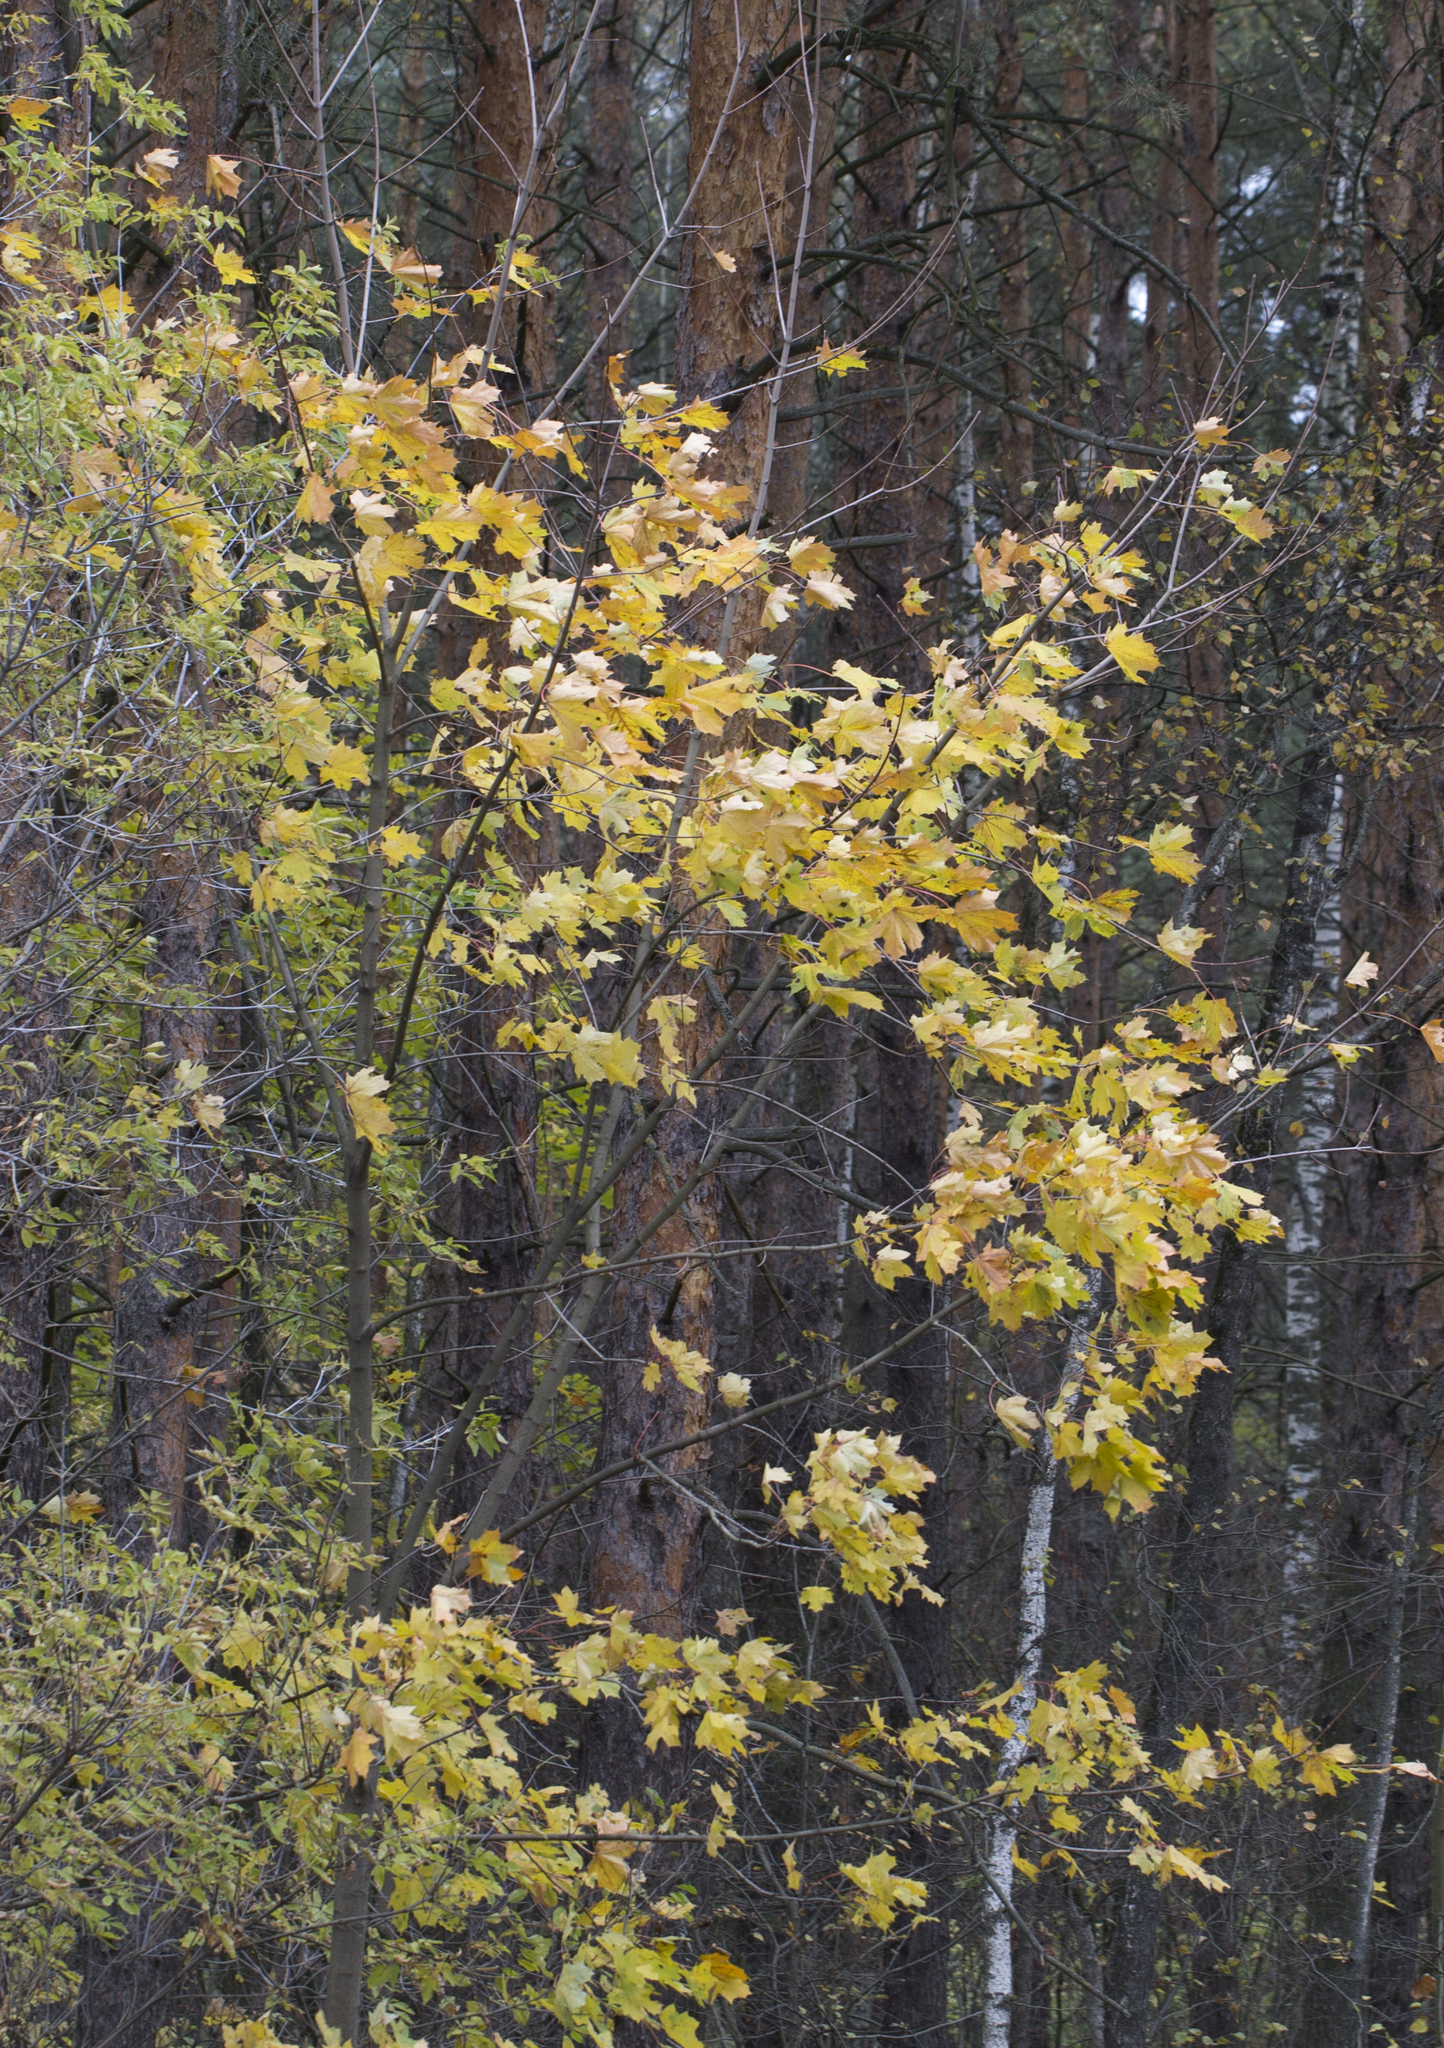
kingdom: Plantae
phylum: Tracheophyta
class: Magnoliopsida
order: Sapindales
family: Sapindaceae
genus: Acer
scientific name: Acer platanoides
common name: Norway maple
